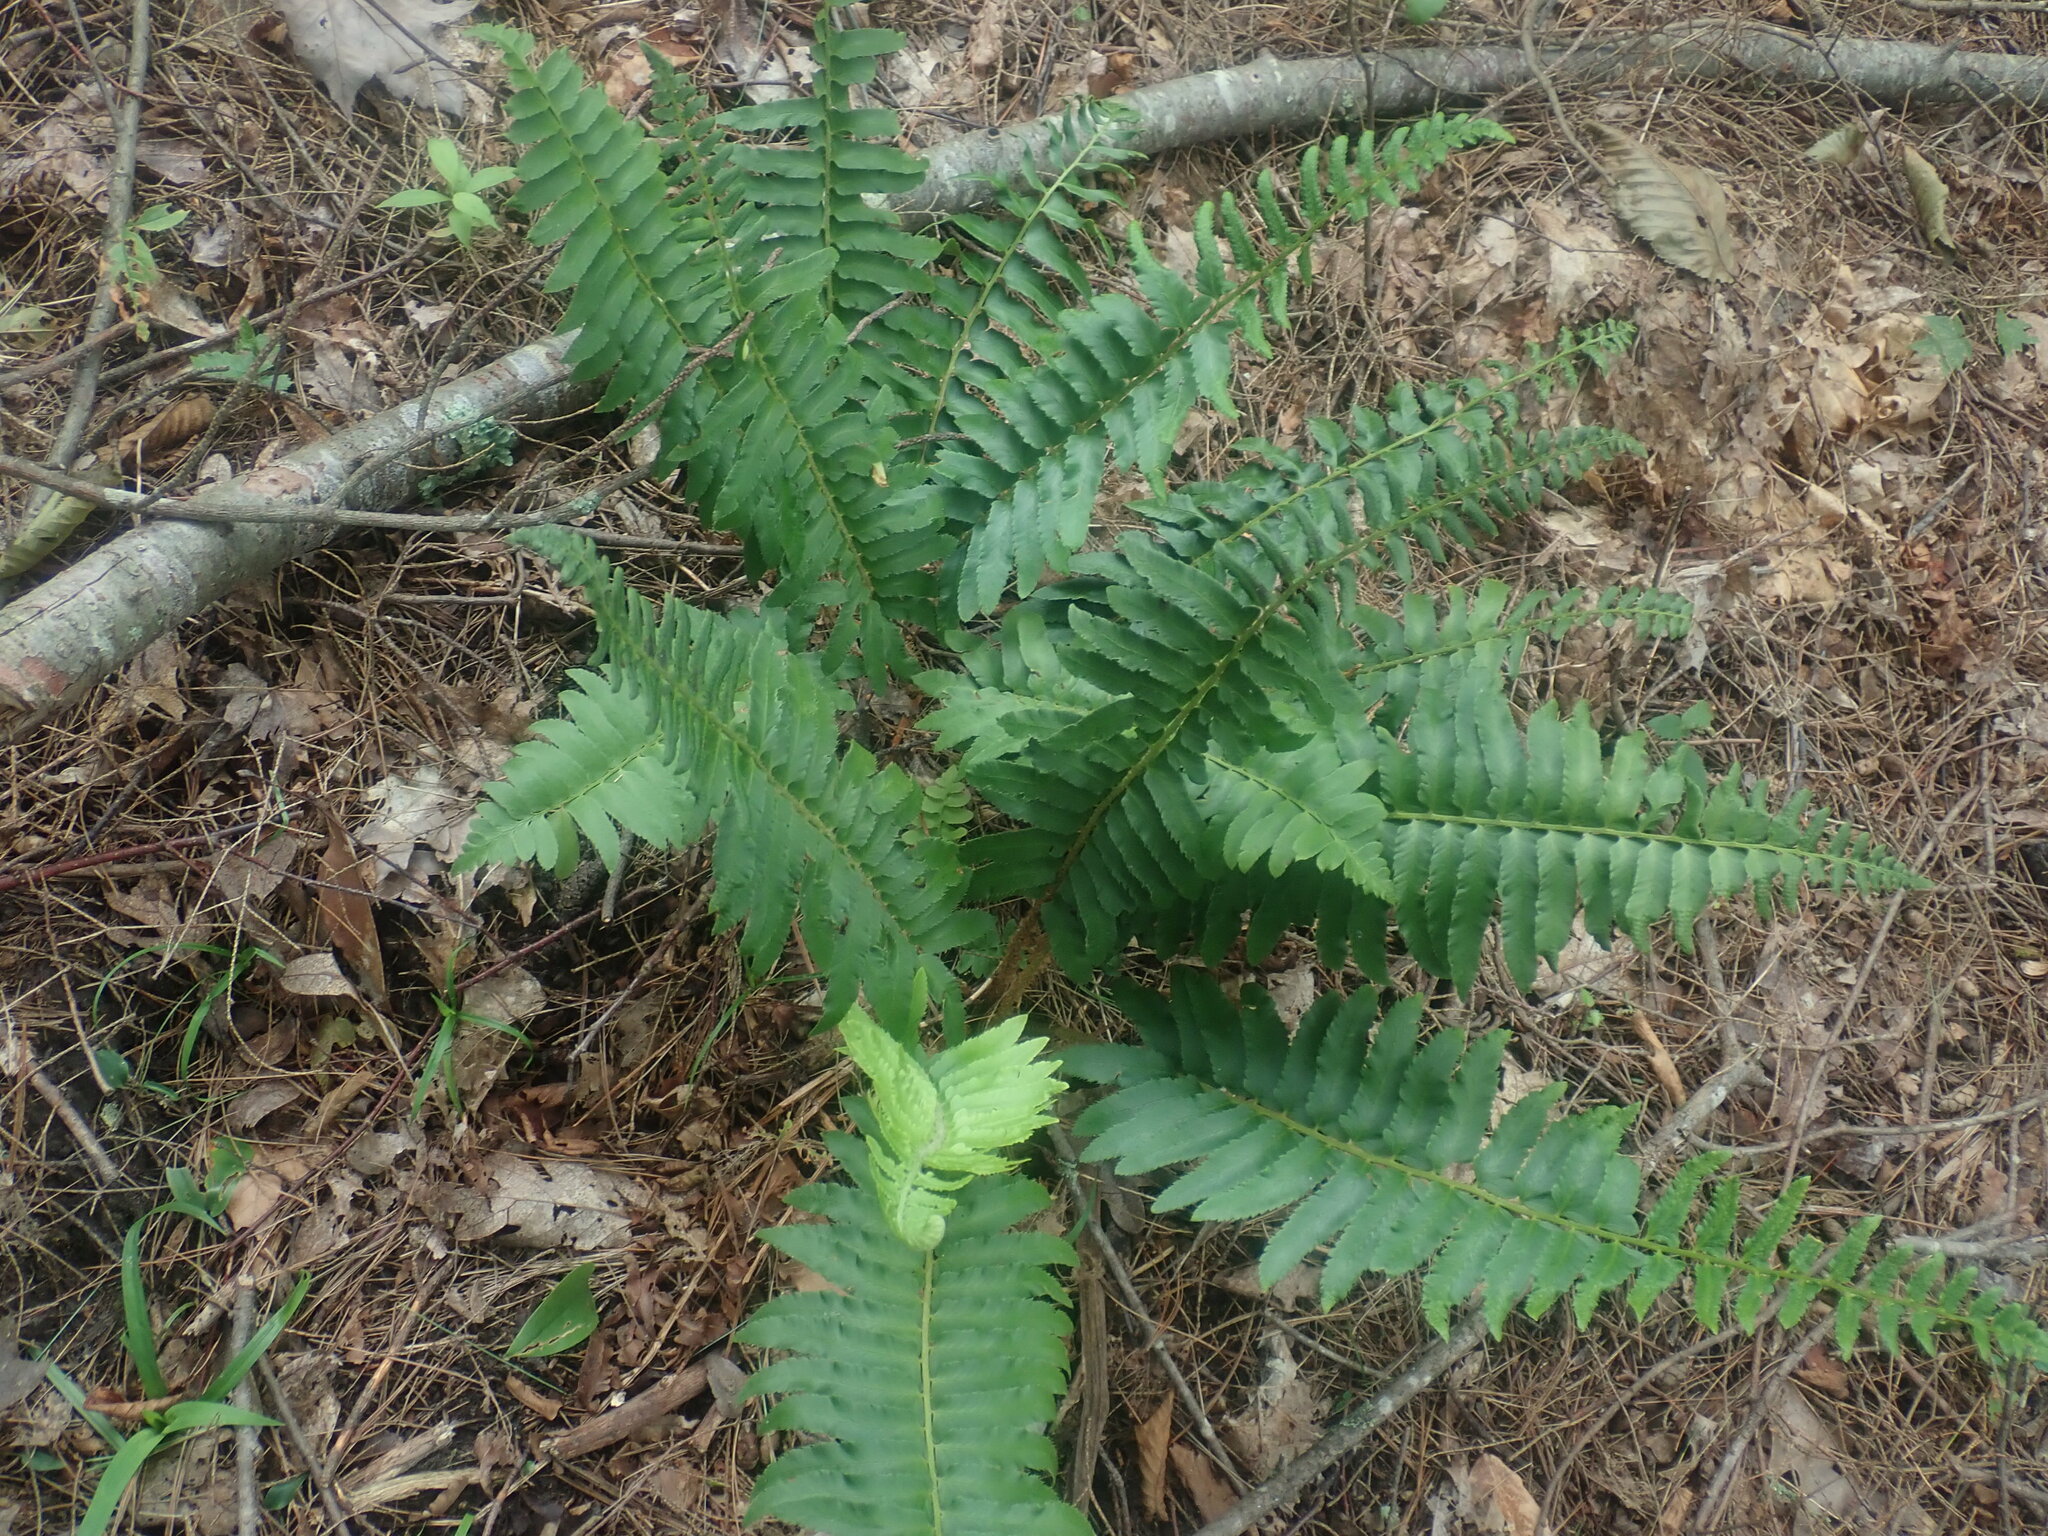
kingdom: Plantae
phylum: Tracheophyta
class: Polypodiopsida
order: Polypodiales
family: Dryopteridaceae
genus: Polystichum
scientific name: Polystichum acrostichoides
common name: Christmas fern
